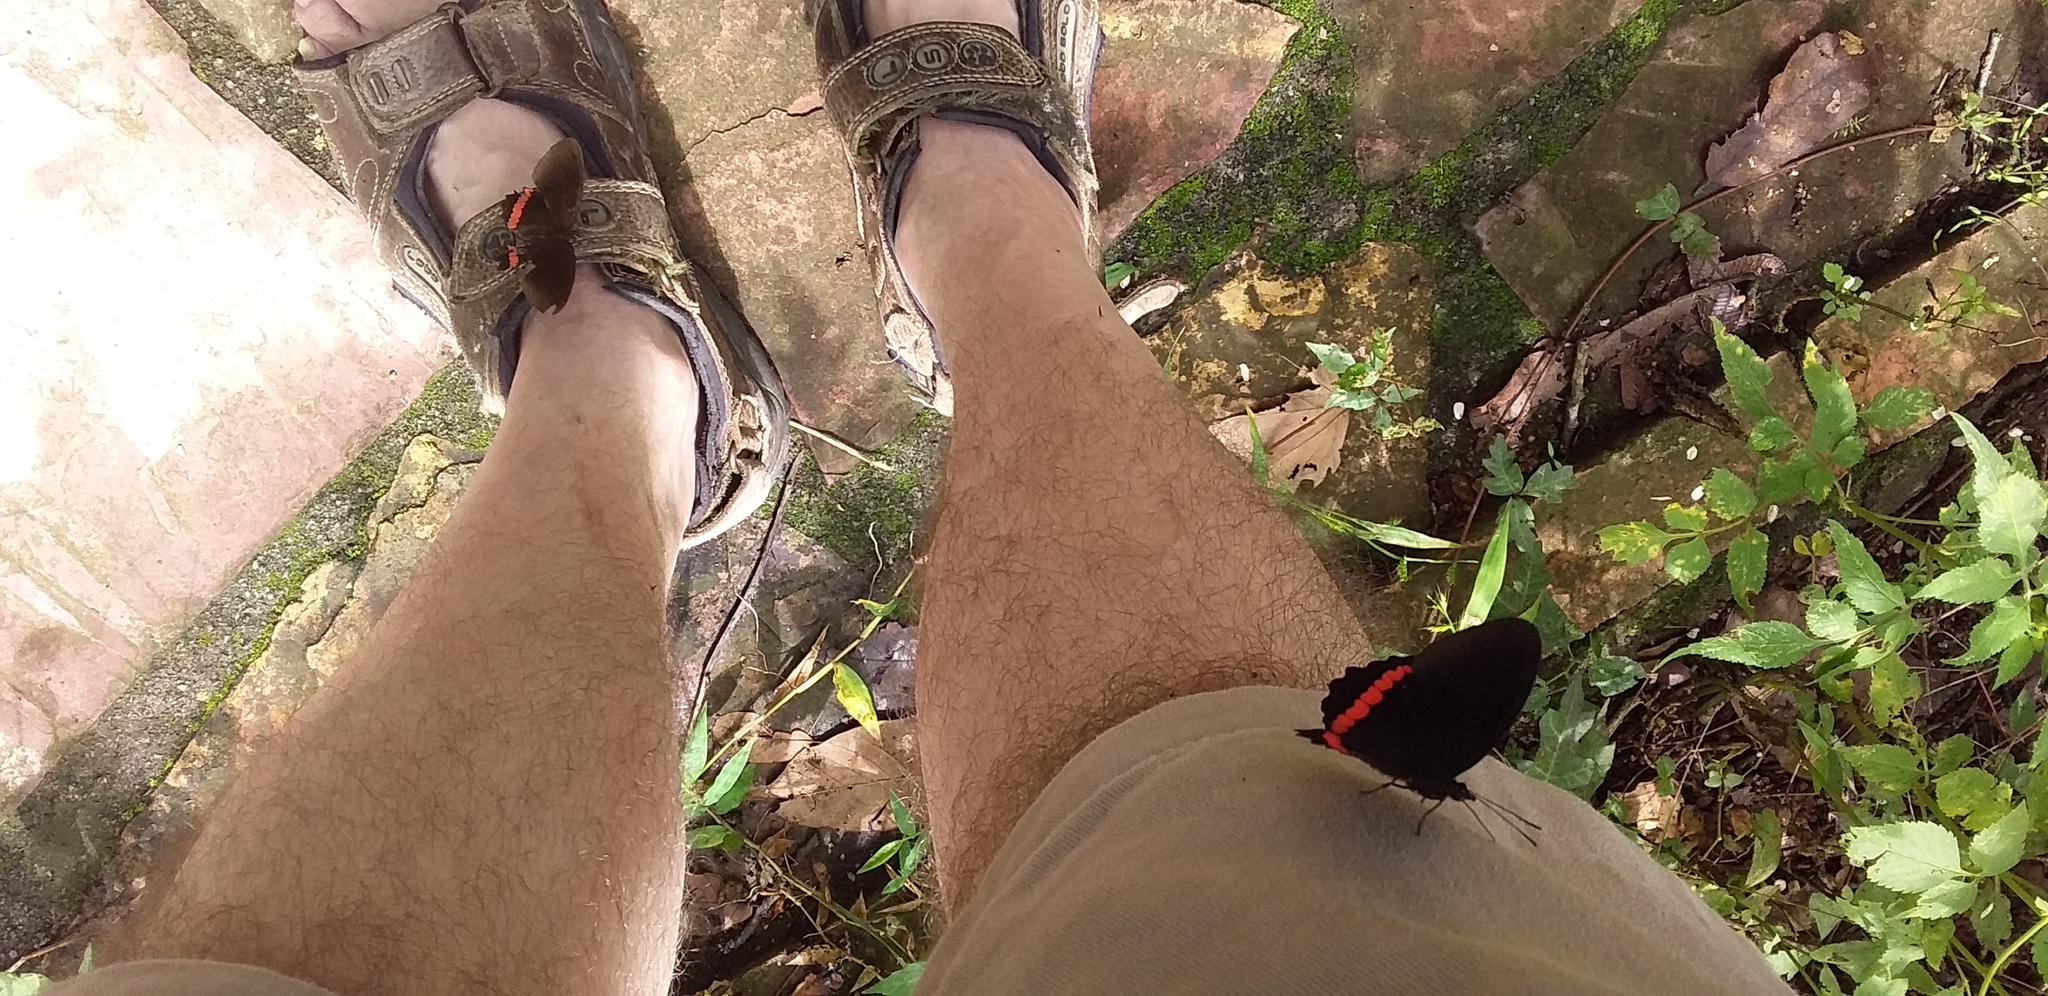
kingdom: Animalia
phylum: Arthropoda
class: Insecta
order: Lepidoptera
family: Nymphalidae
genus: Biblis
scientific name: Biblis aganisa
